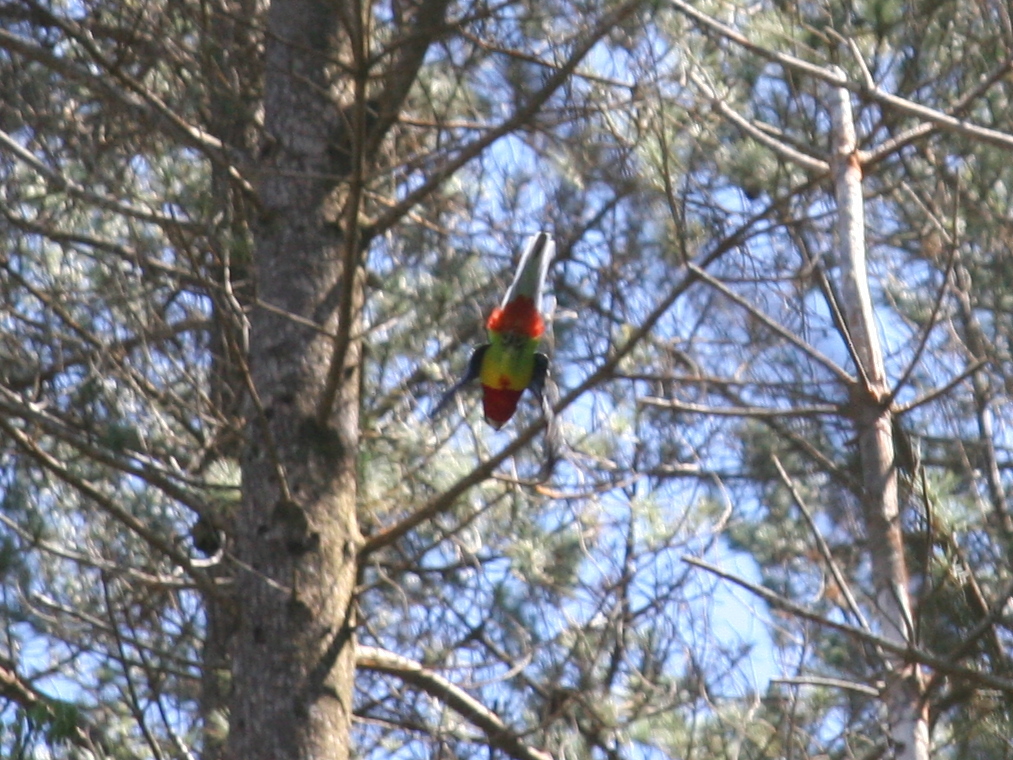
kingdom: Animalia
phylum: Chordata
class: Aves
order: Psittaciformes
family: Psittacidae
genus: Platycercus
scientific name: Platycercus eximius
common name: Eastern rosella
